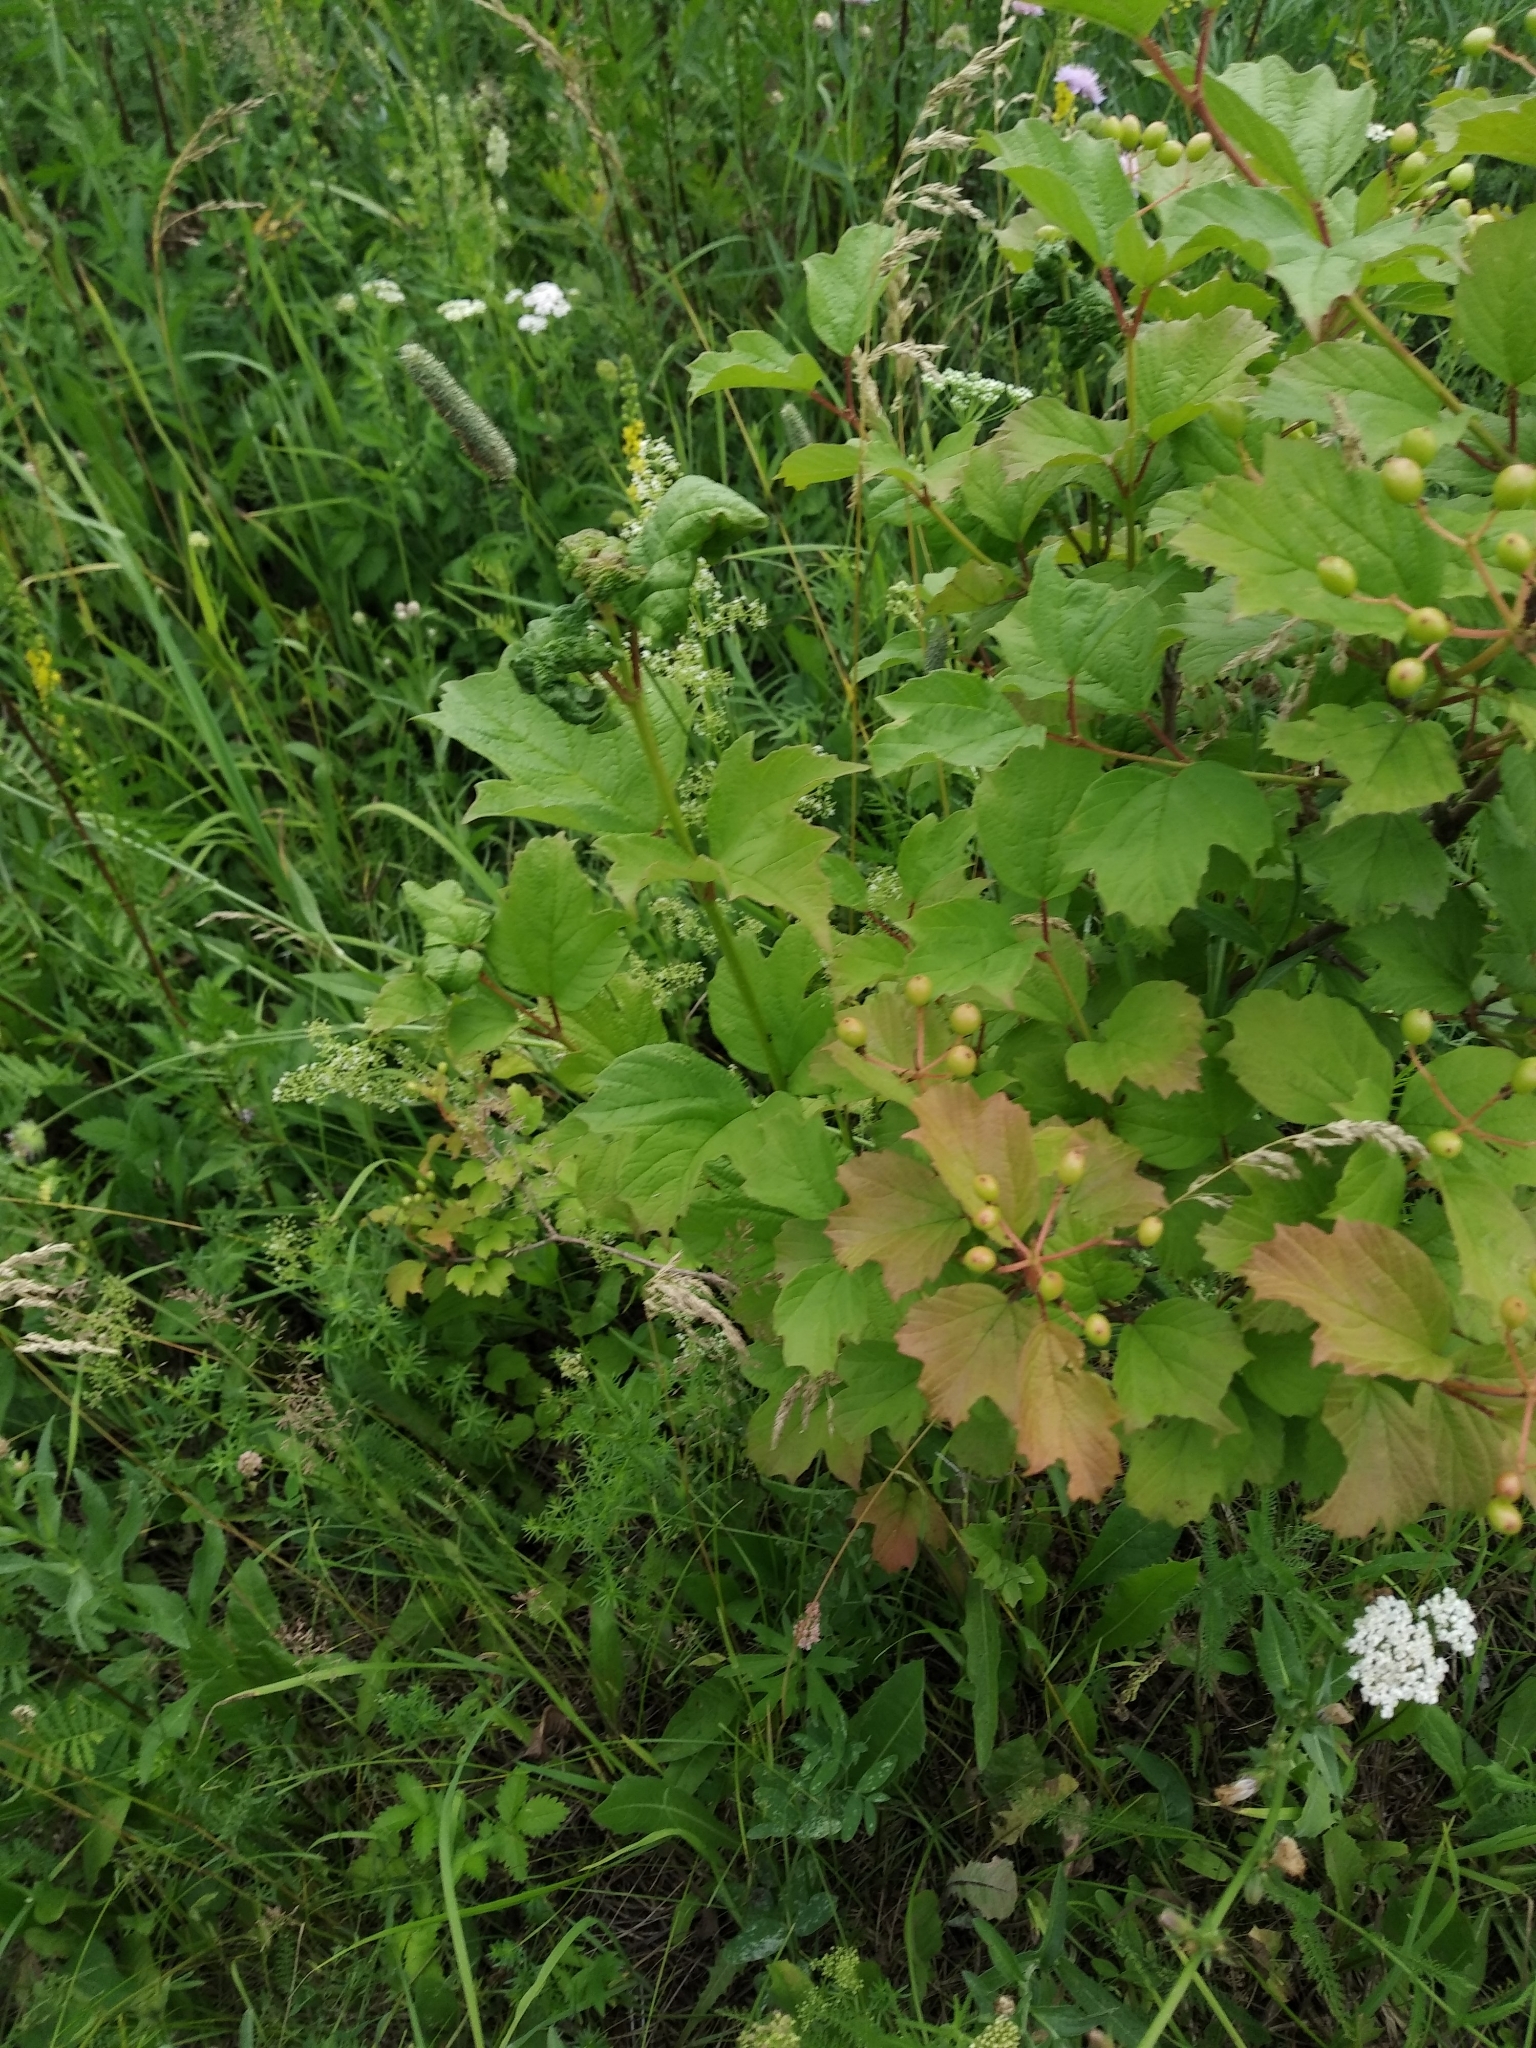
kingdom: Plantae
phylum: Tracheophyta
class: Magnoliopsida
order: Dipsacales
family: Viburnaceae
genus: Viburnum
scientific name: Viburnum opulus
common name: Guelder-rose
